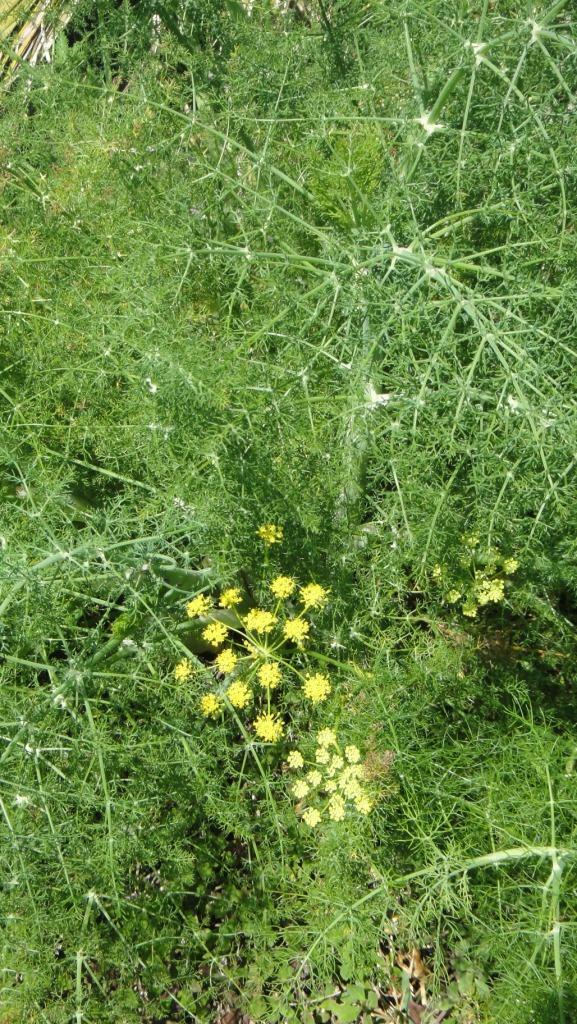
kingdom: Plantae
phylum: Tracheophyta
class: Magnoliopsida
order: Apiales
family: Apiaceae
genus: Foeniculum
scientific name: Foeniculum vulgare
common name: Fennel
